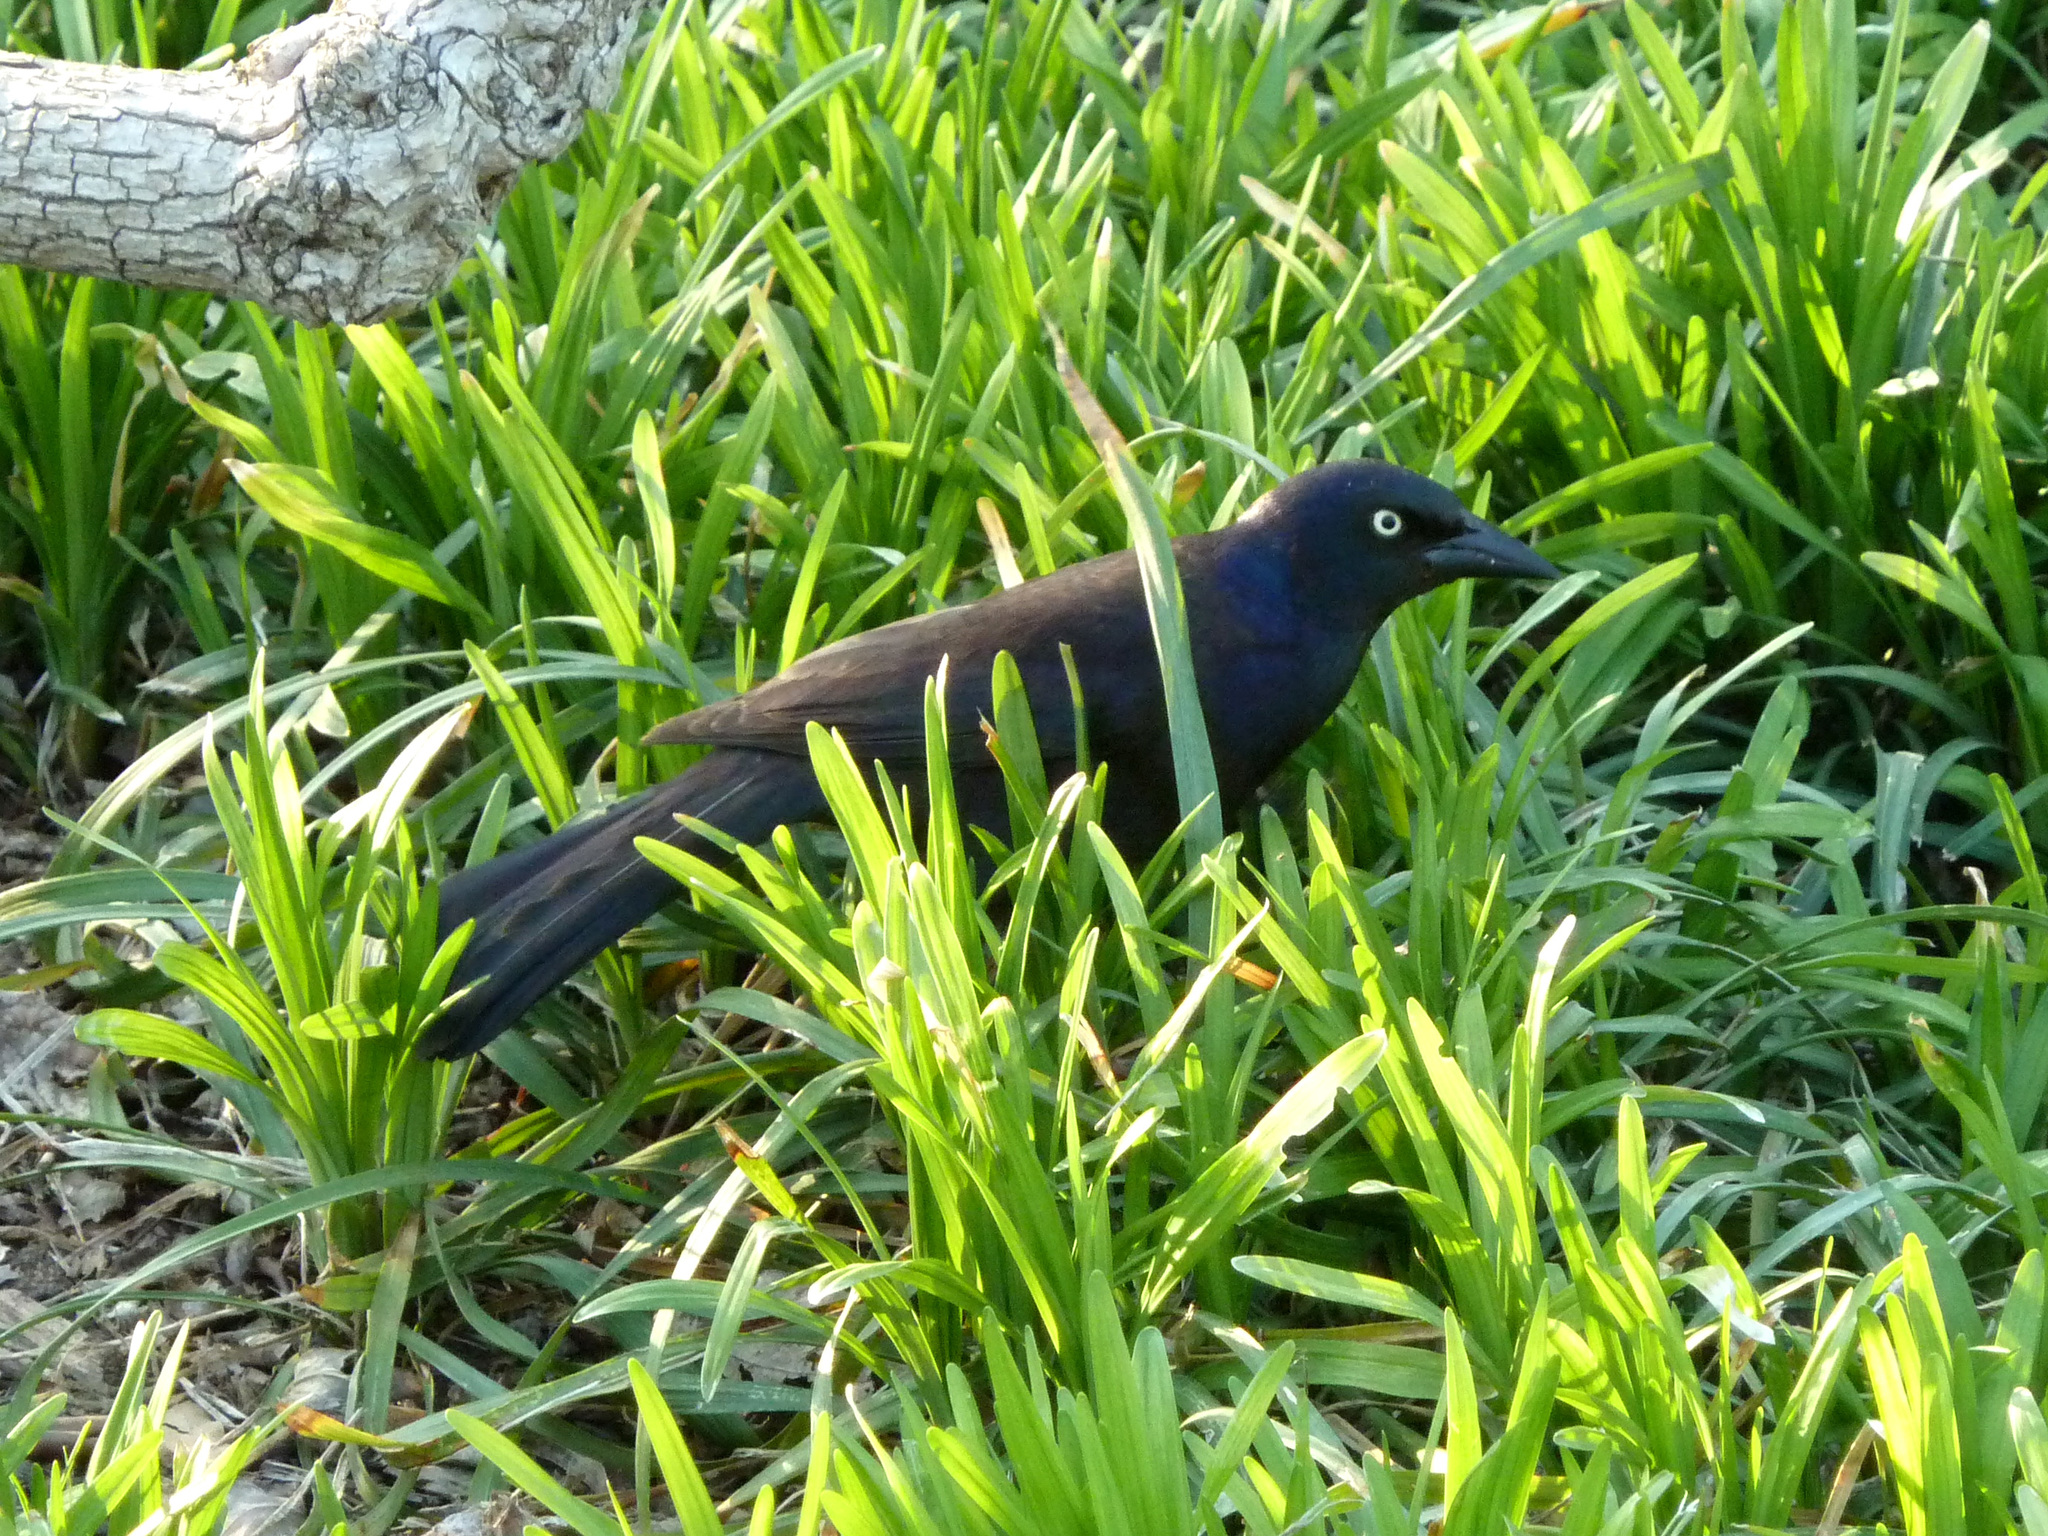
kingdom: Animalia
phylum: Chordata
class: Aves
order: Passeriformes
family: Icteridae
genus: Quiscalus
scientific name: Quiscalus quiscula
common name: Common grackle
